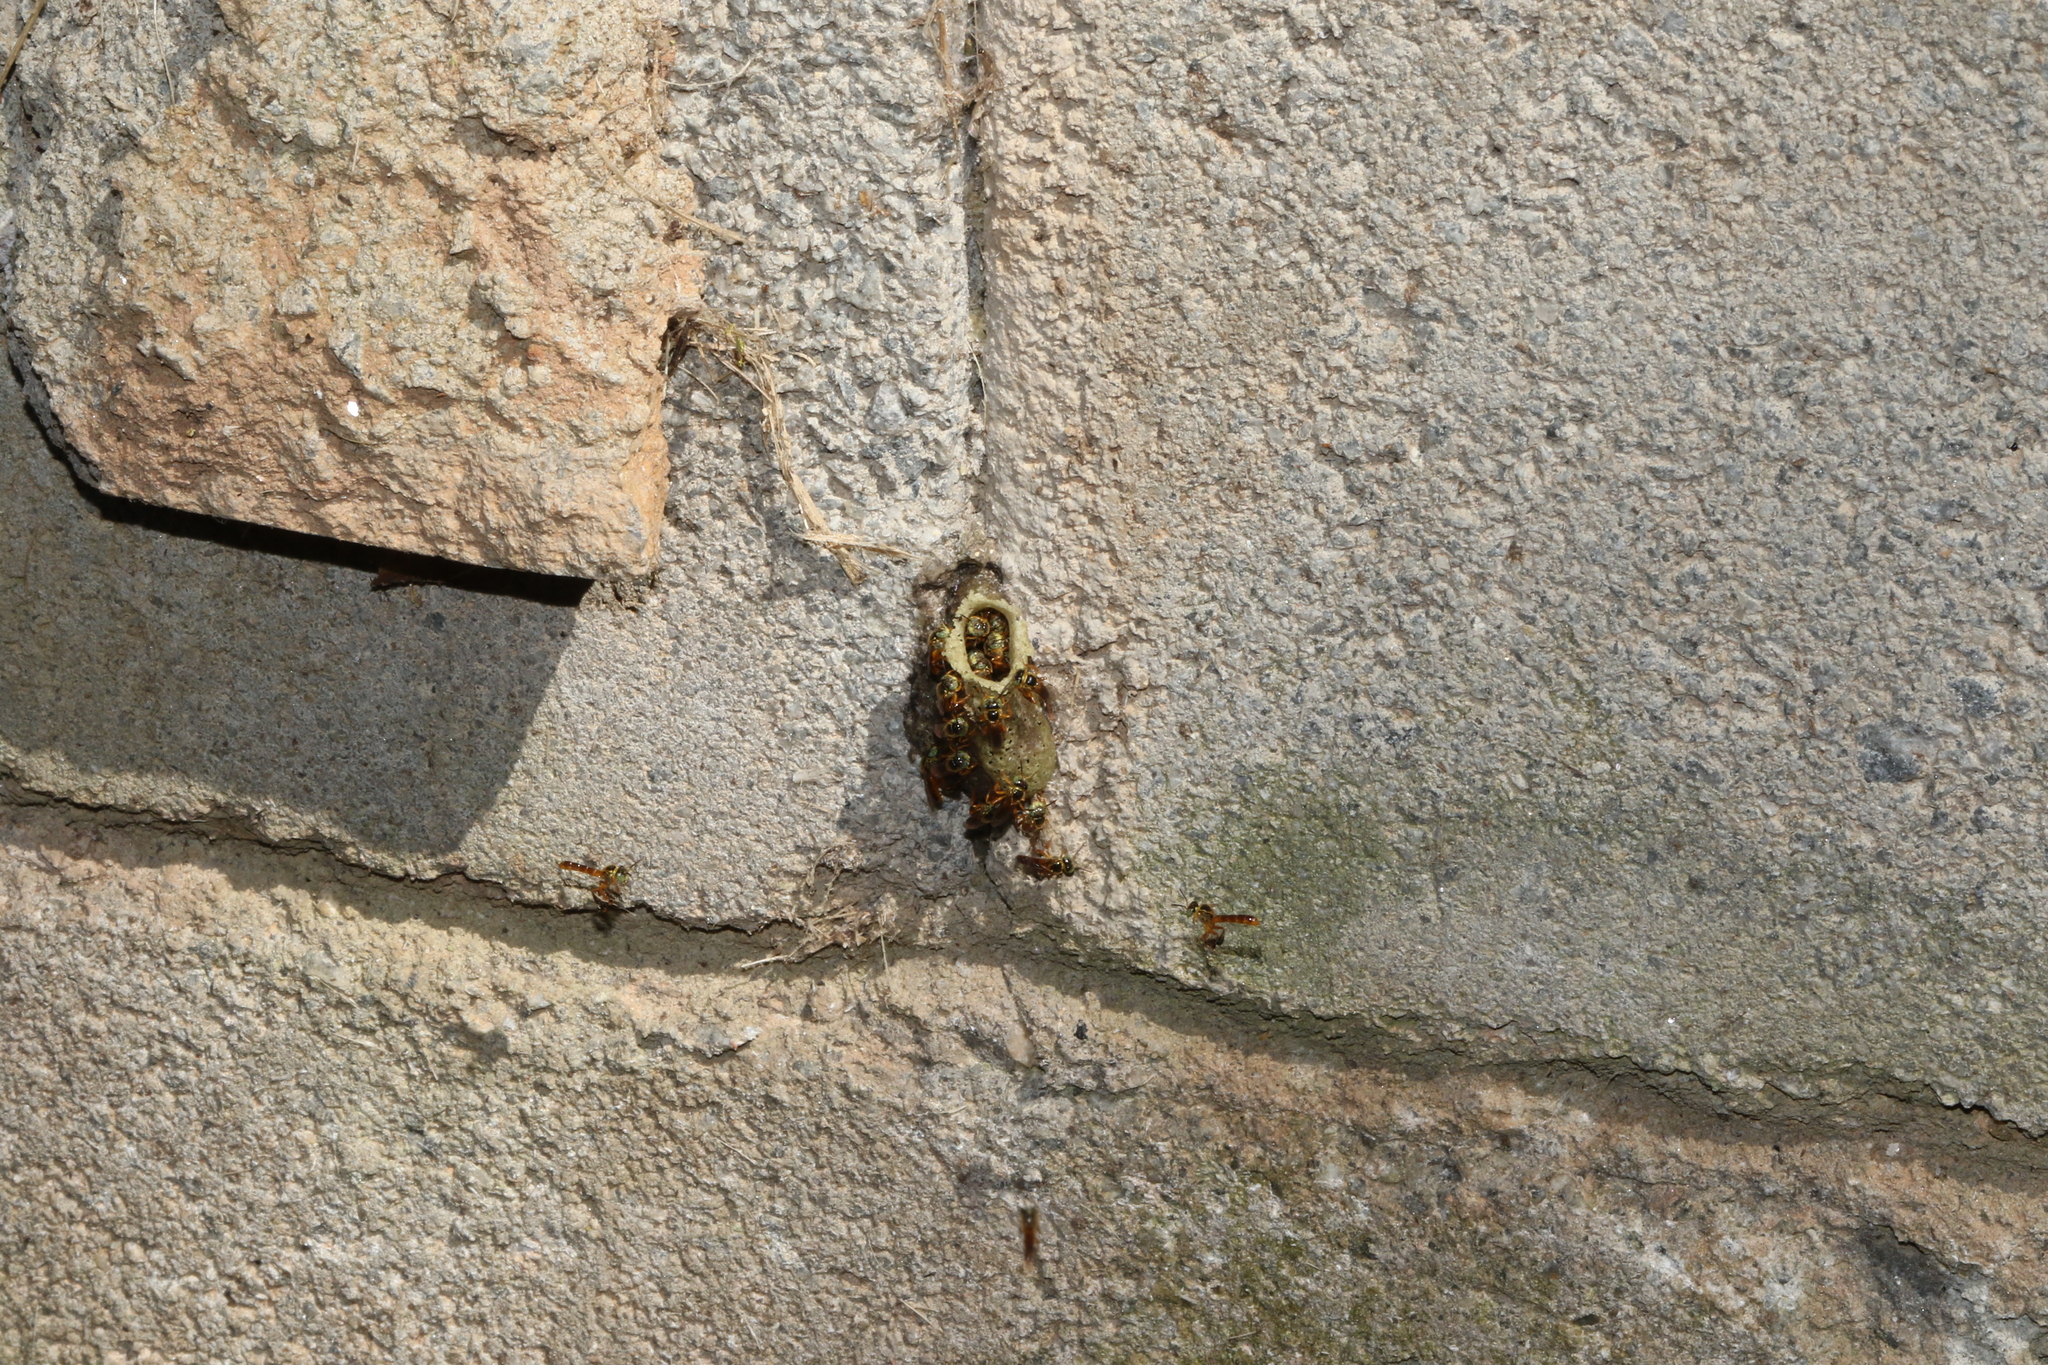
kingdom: Animalia
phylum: Arthropoda
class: Insecta
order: Hymenoptera
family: Apidae
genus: Tetragonisca
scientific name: Tetragonisca angustula
